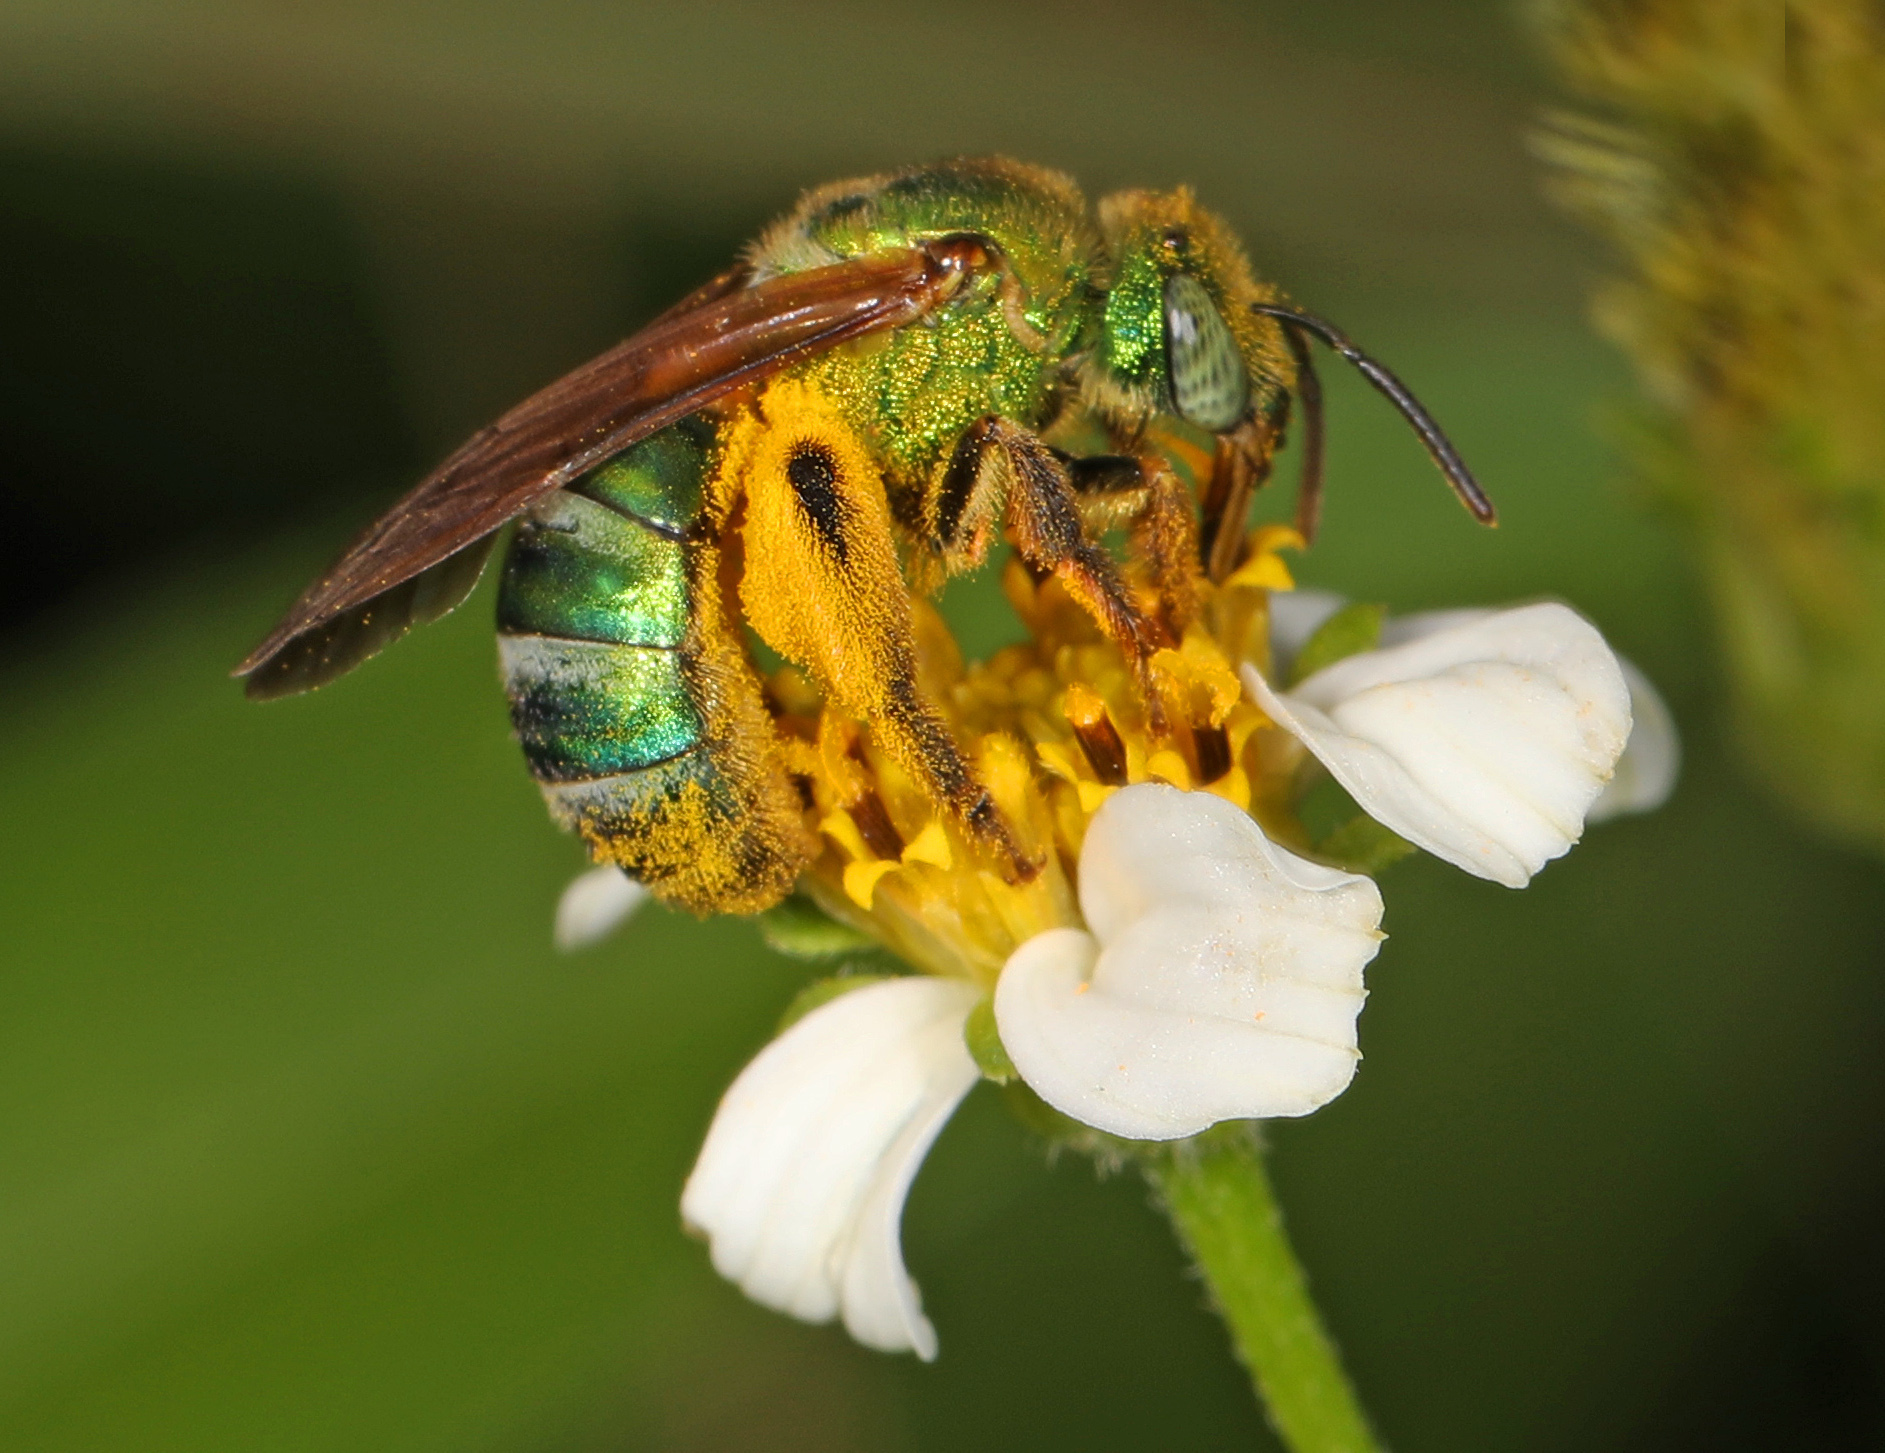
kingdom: Animalia
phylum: Arthropoda
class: Insecta
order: Hymenoptera
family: Halictidae
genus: Agapostemon
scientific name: Agapostemon splendens
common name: Brown-winged striped sweat bee
